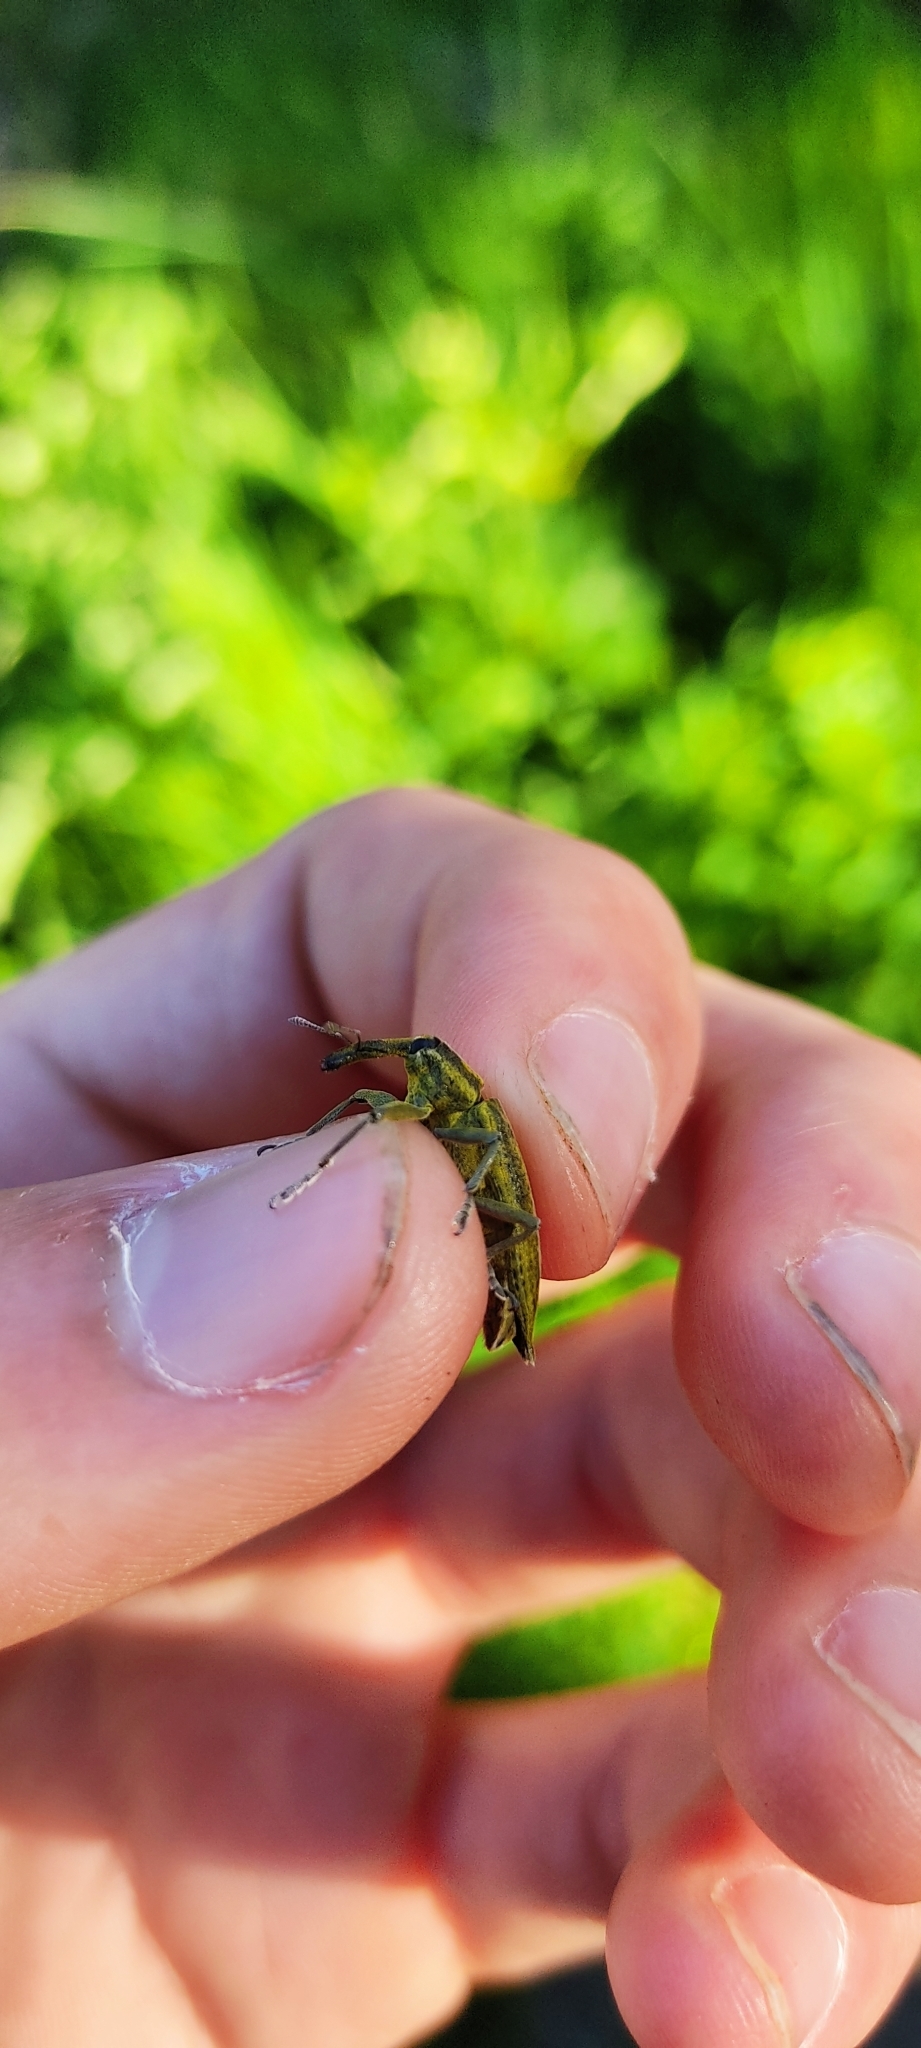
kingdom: Animalia
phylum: Arthropoda
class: Insecta
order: Coleoptera
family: Curculionidae
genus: Lixus
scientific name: Lixus iridis
